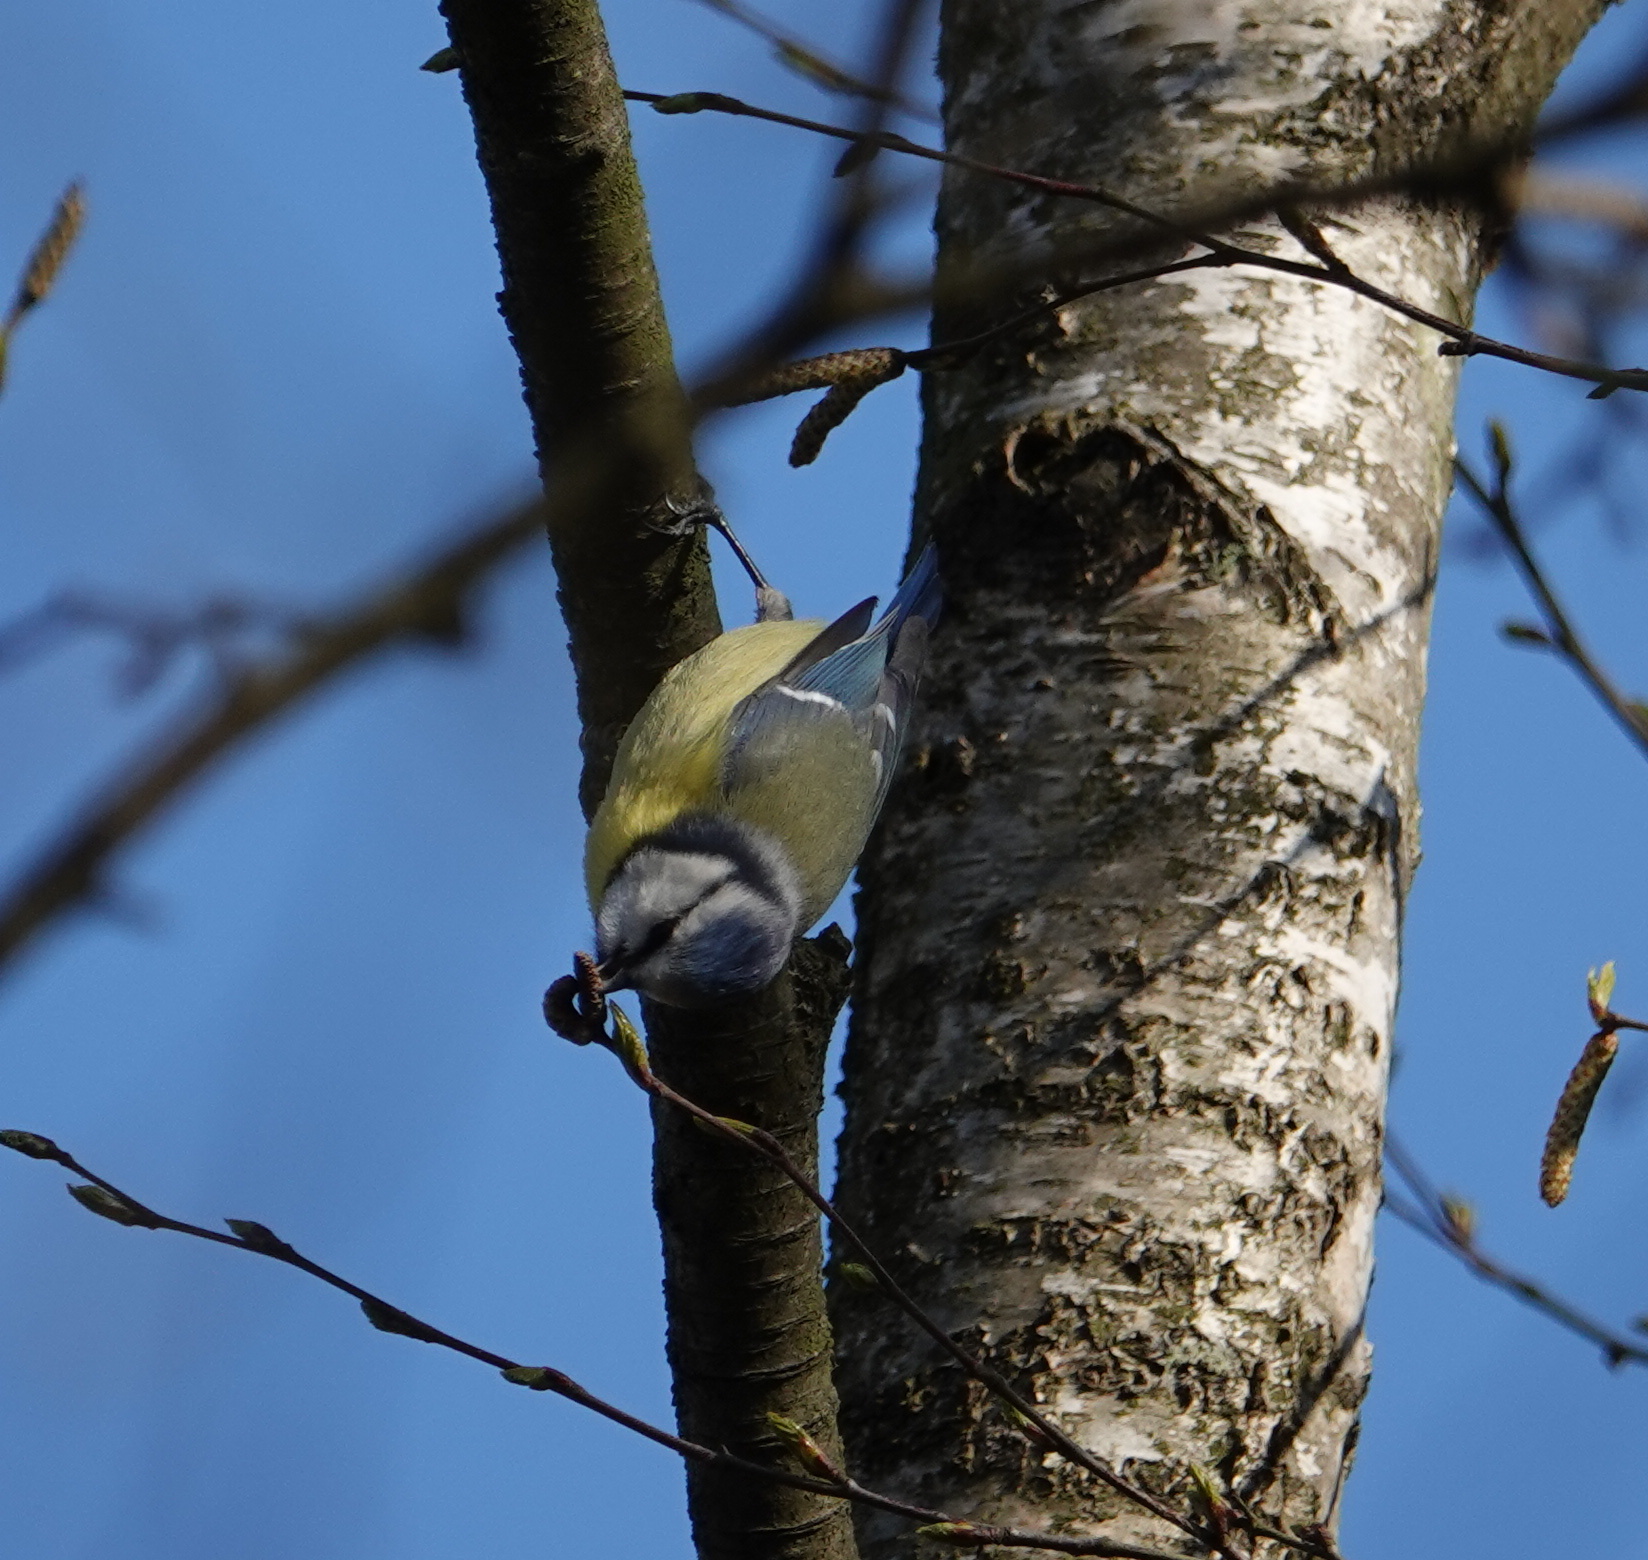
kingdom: Animalia
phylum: Chordata
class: Aves
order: Passeriformes
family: Paridae
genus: Cyanistes
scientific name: Cyanistes caeruleus
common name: Eurasian blue tit
